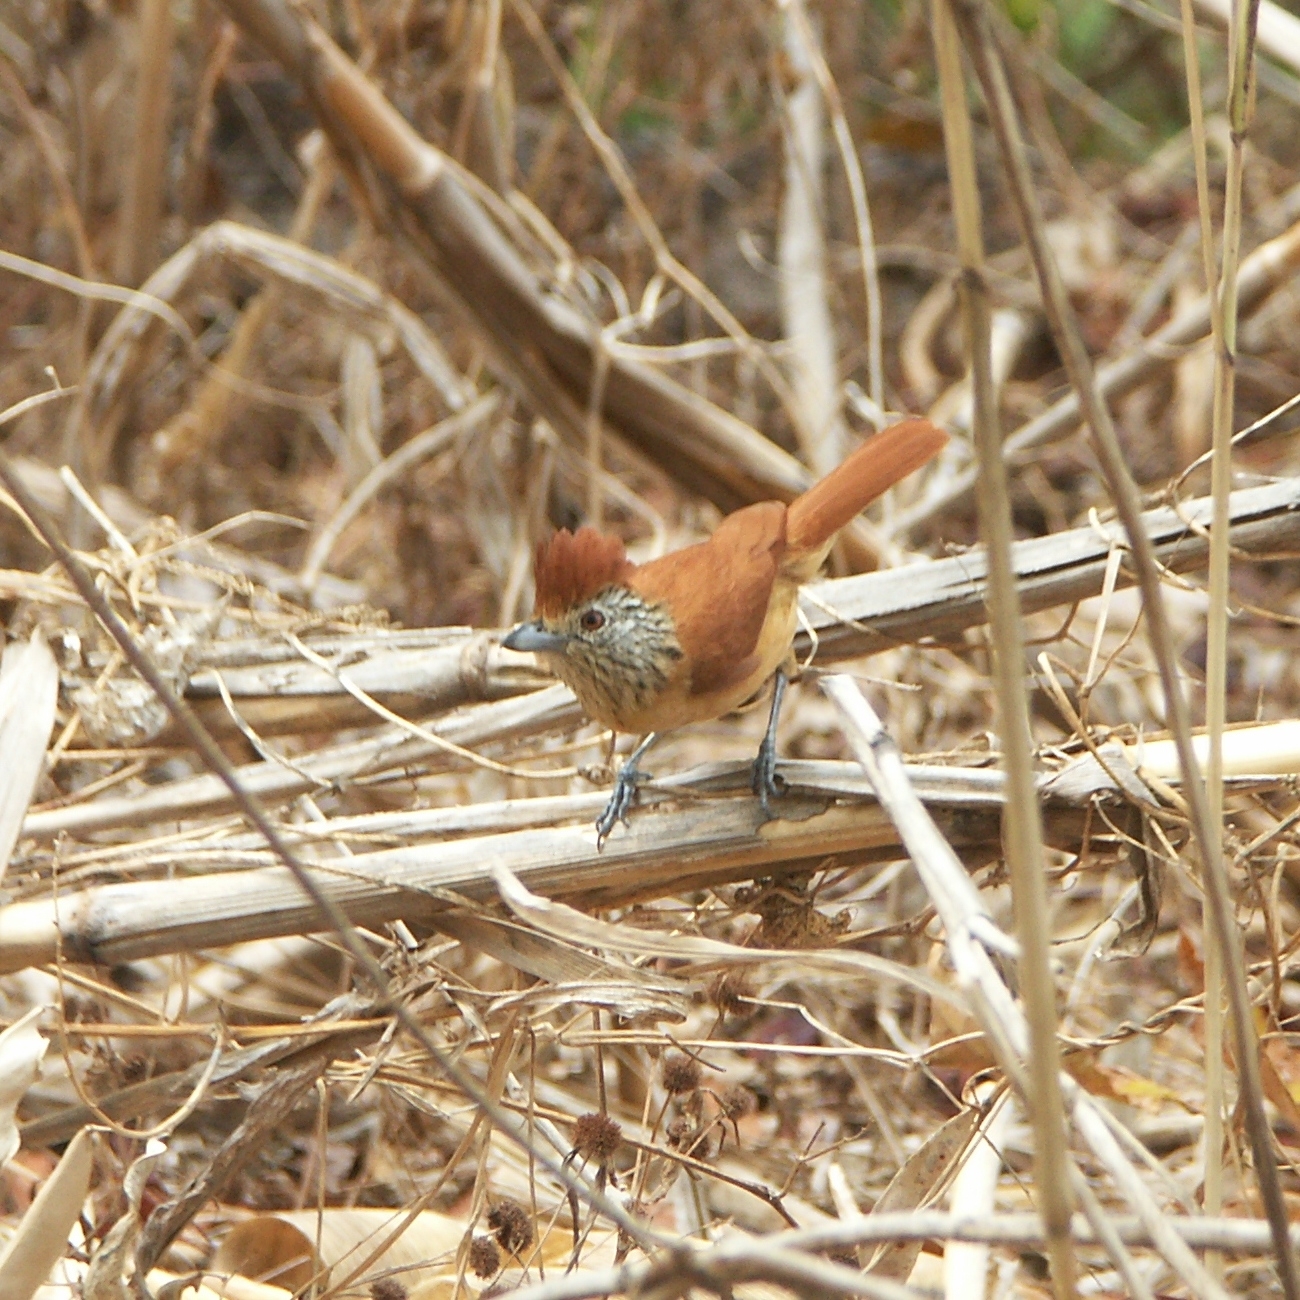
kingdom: Animalia
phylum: Chordata
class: Aves
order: Passeriformes
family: Thamnophilidae
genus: Thamnophilus
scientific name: Thamnophilus doliatus
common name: Barred antshrike
